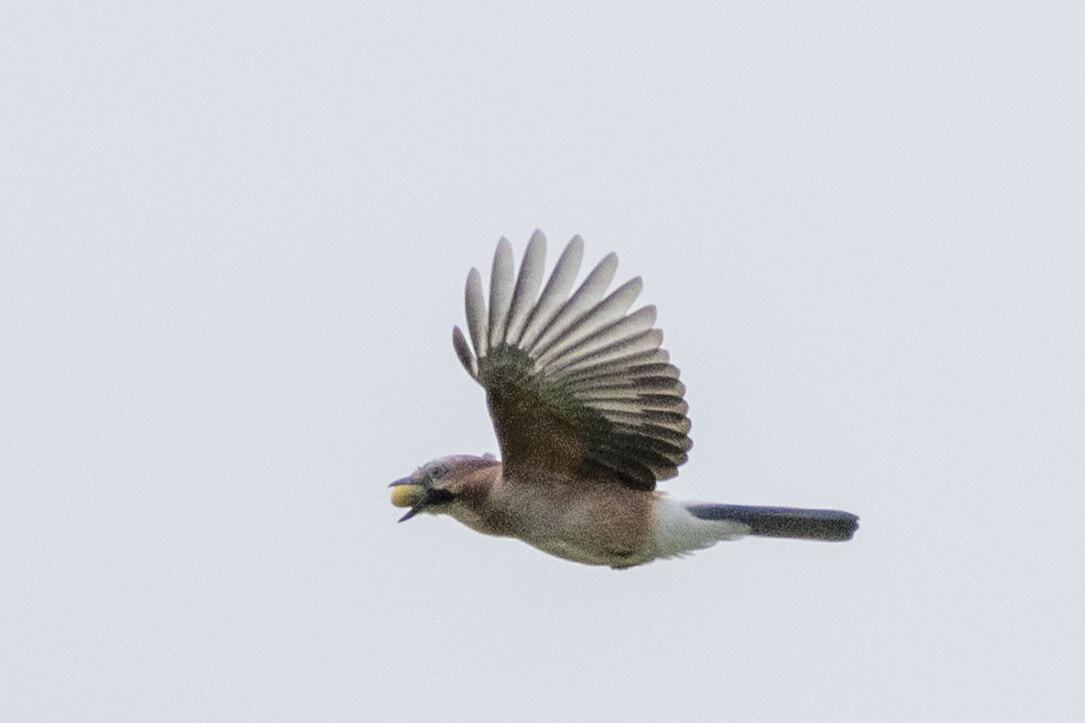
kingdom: Animalia
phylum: Chordata
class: Aves
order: Passeriformes
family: Corvidae
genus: Garrulus
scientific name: Garrulus glandarius
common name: Eurasian jay
